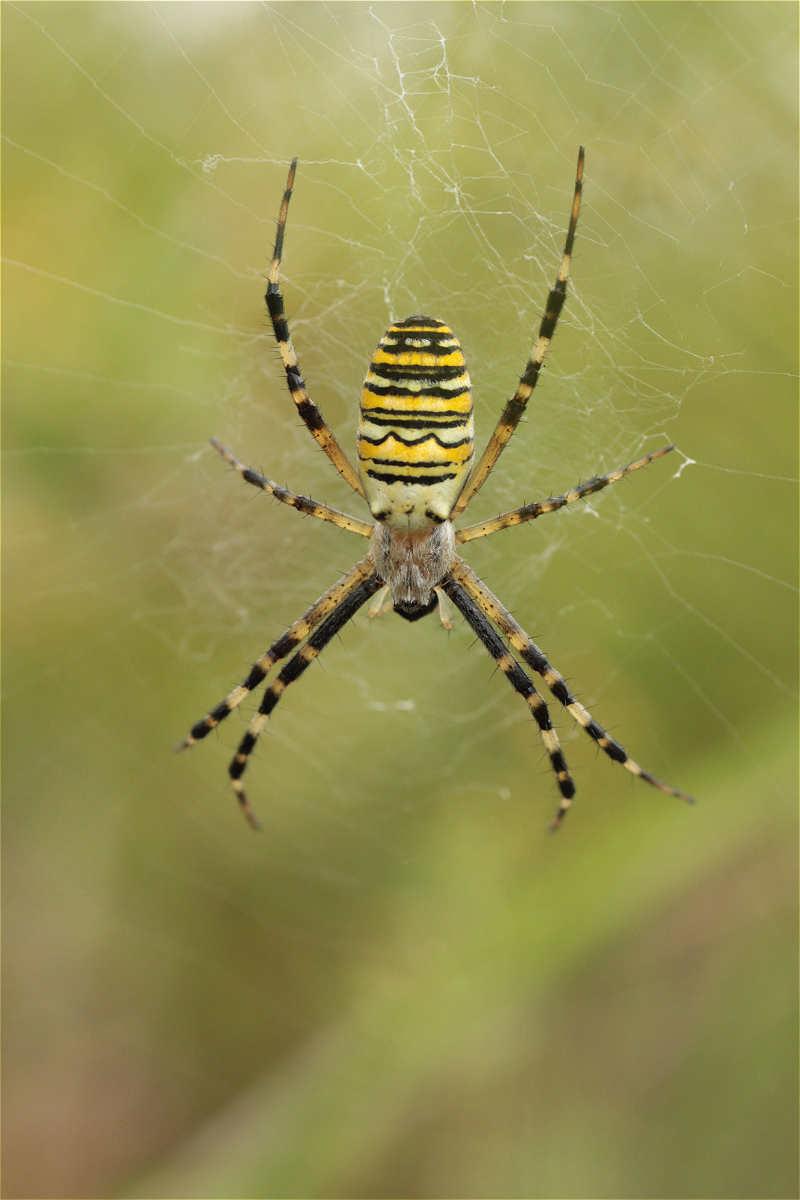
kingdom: Animalia
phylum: Arthropoda
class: Arachnida
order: Araneae
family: Araneidae
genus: Argiope
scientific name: Argiope bruennichi
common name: Wasp spider
